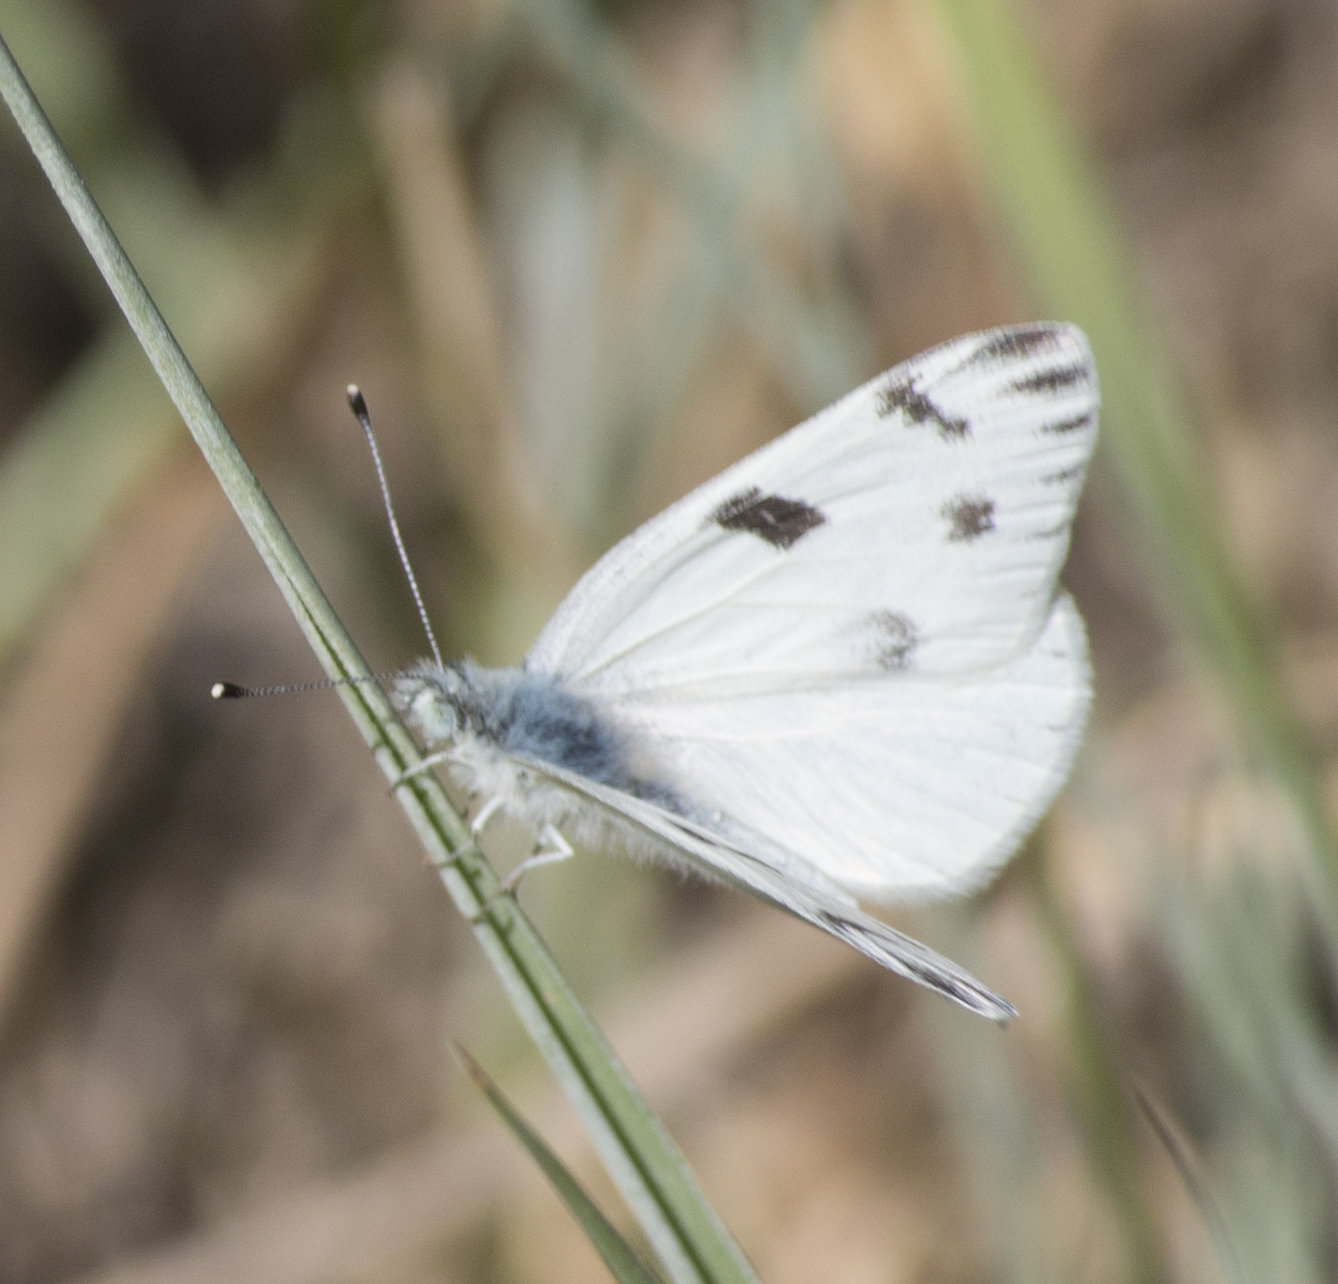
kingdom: Animalia
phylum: Arthropoda
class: Insecta
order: Lepidoptera
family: Pieridae
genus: Pontia
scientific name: Pontia protodice
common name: Checkered white
